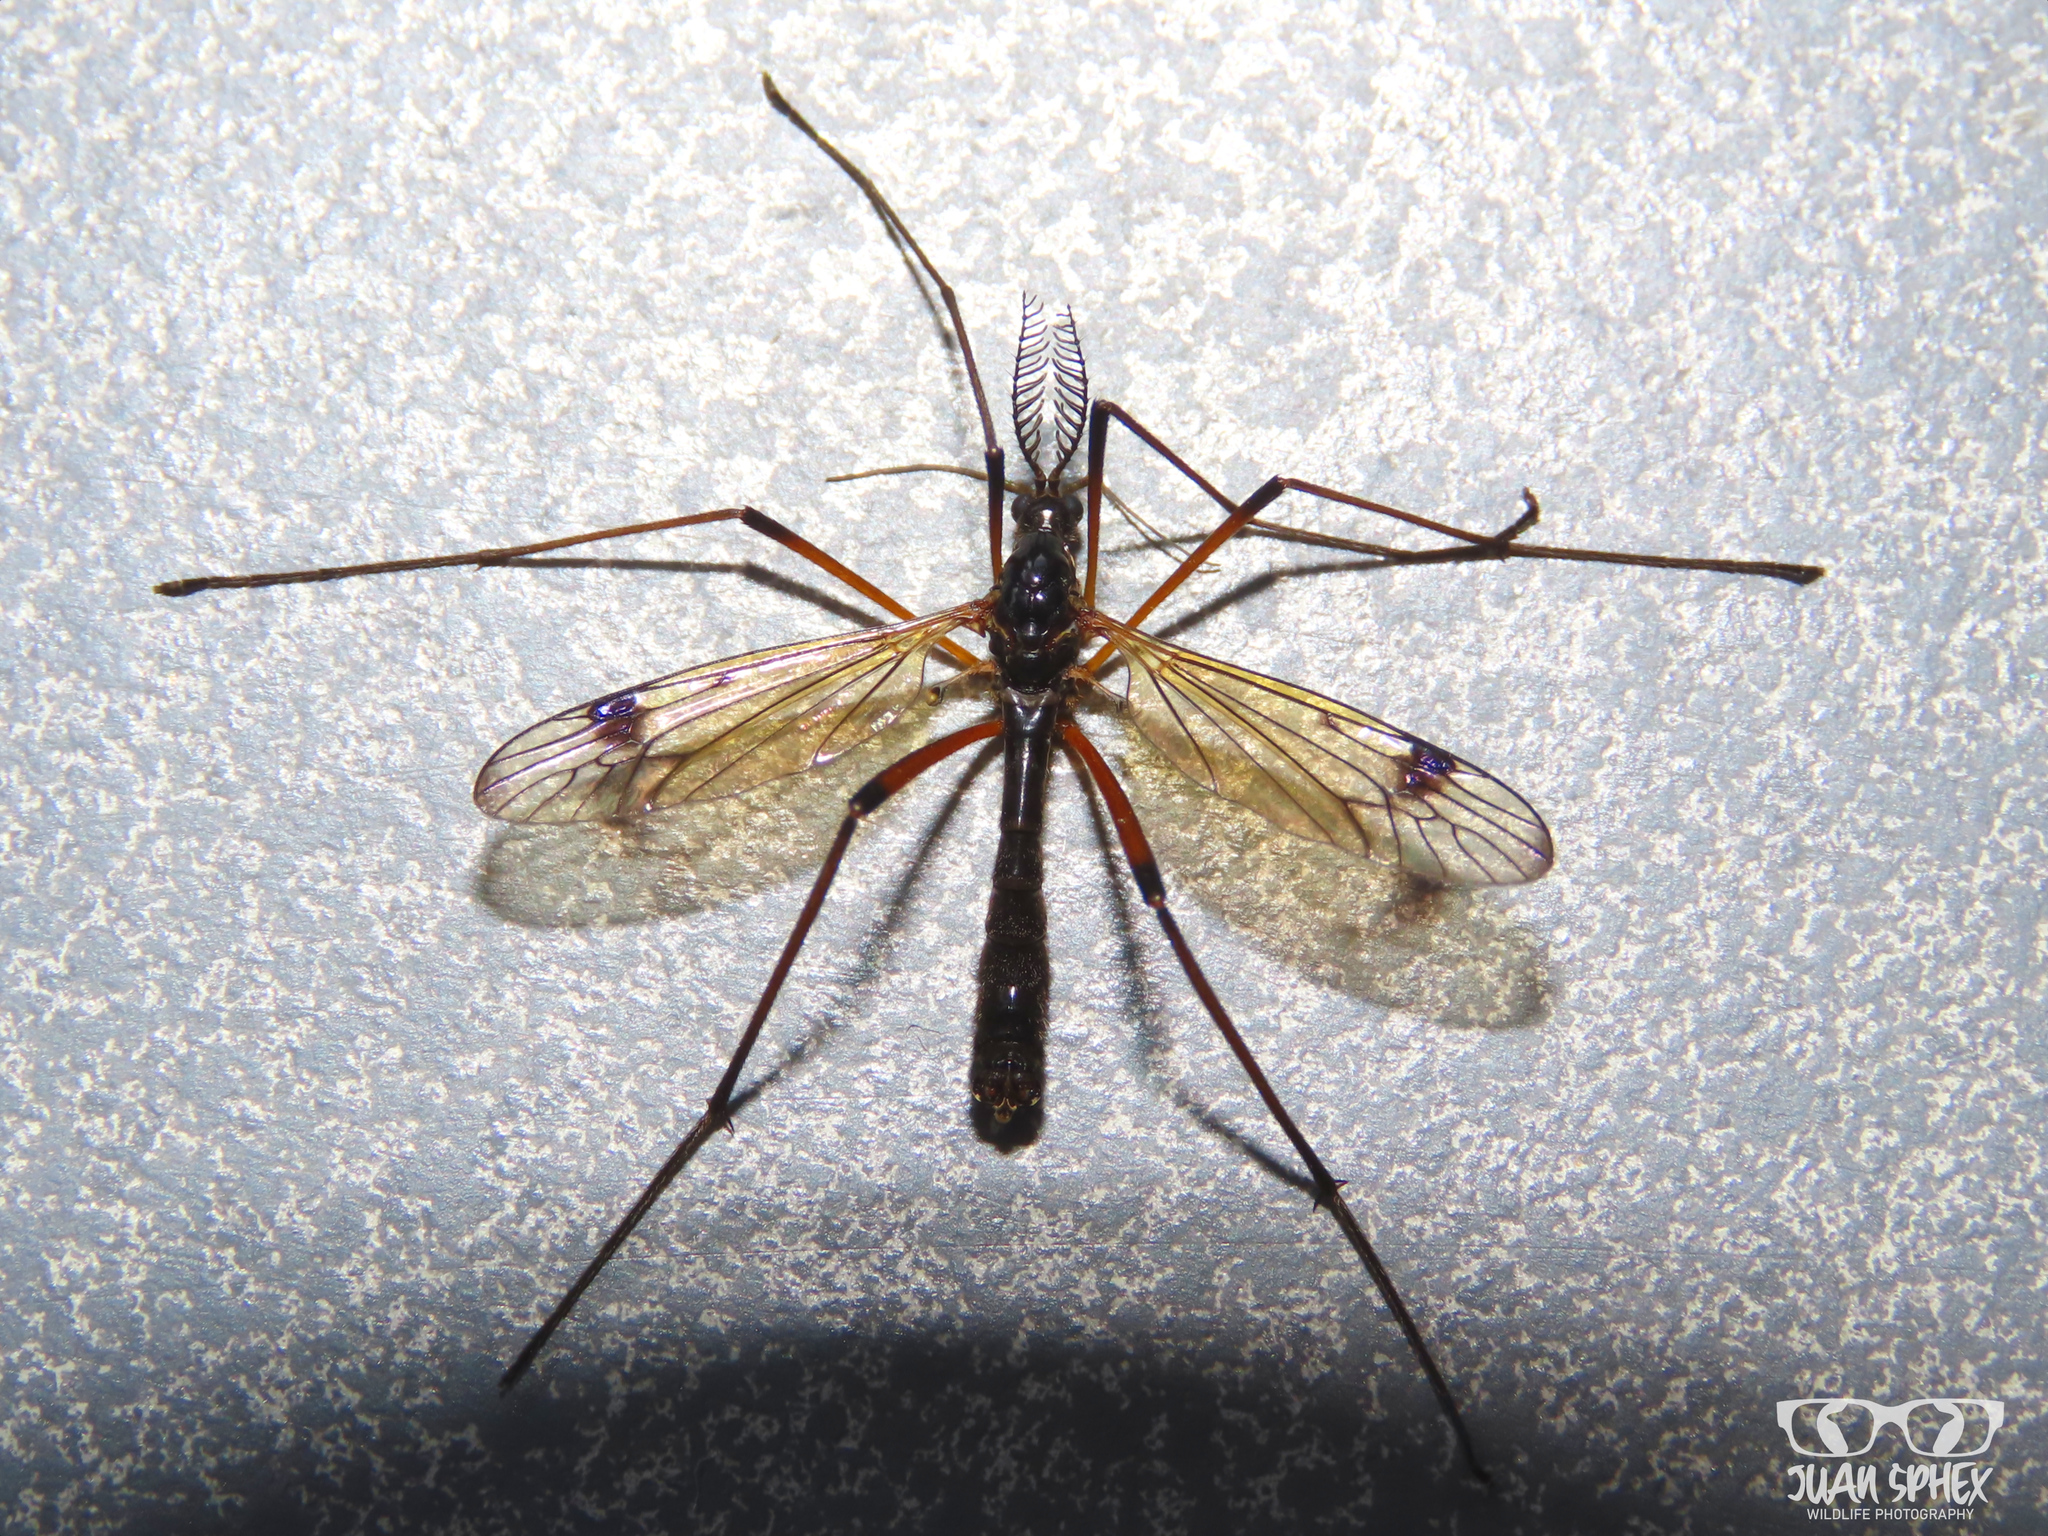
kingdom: Animalia
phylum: Arthropoda
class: Insecta
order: Diptera
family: Tipulidae
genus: Dictenidia
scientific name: Dictenidia bimaculata
